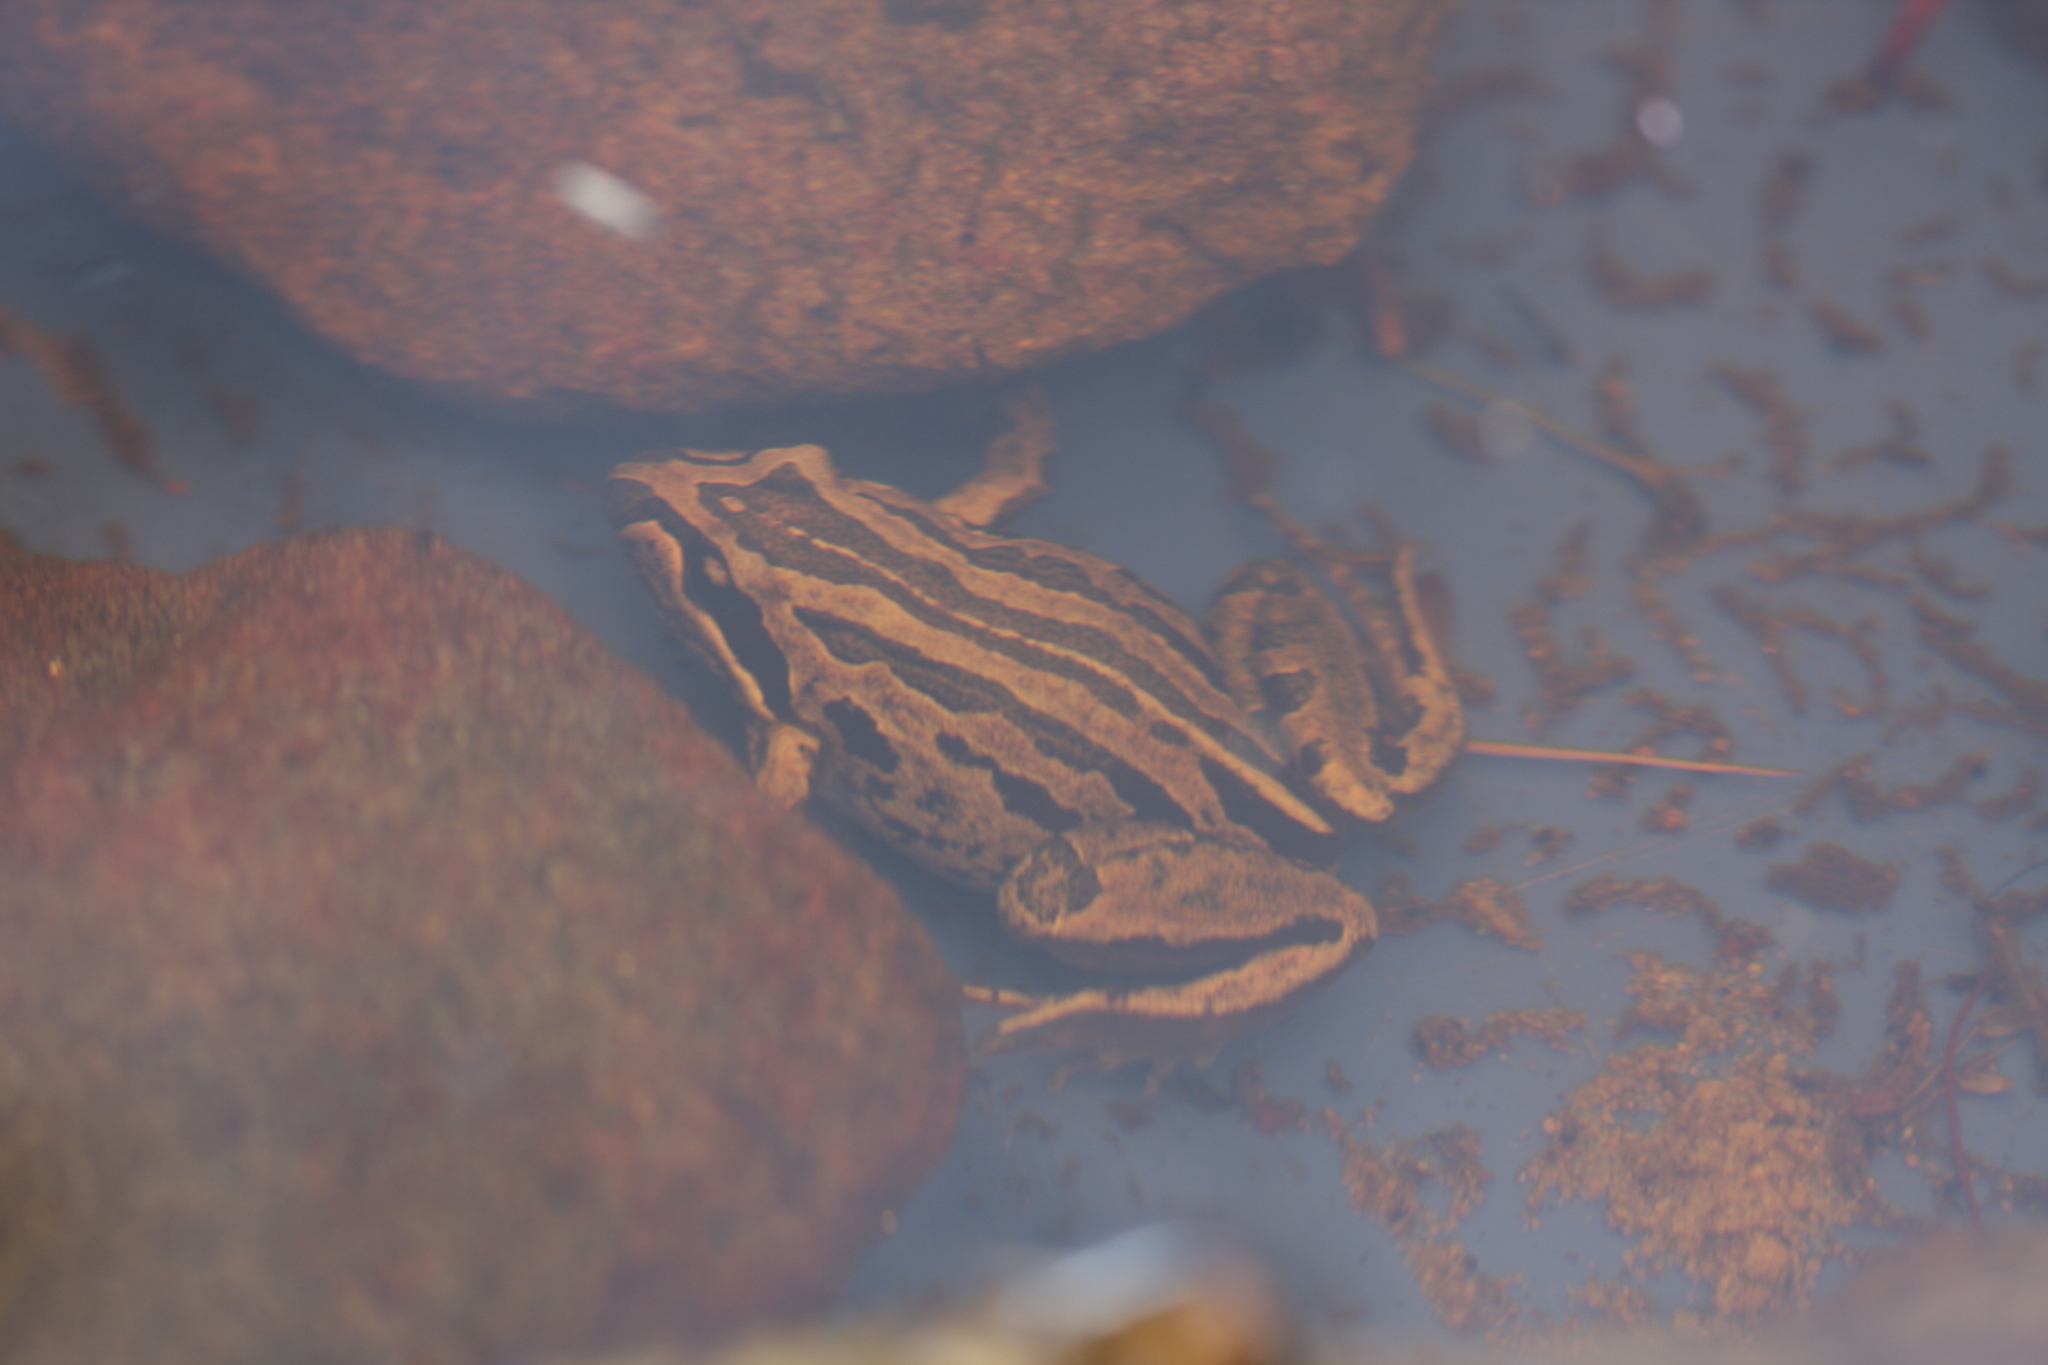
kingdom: Animalia
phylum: Chordata
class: Amphibia
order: Anura
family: Limnodynastidae
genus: Limnodynastes
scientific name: Limnodynastes peronii
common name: Brown frog
